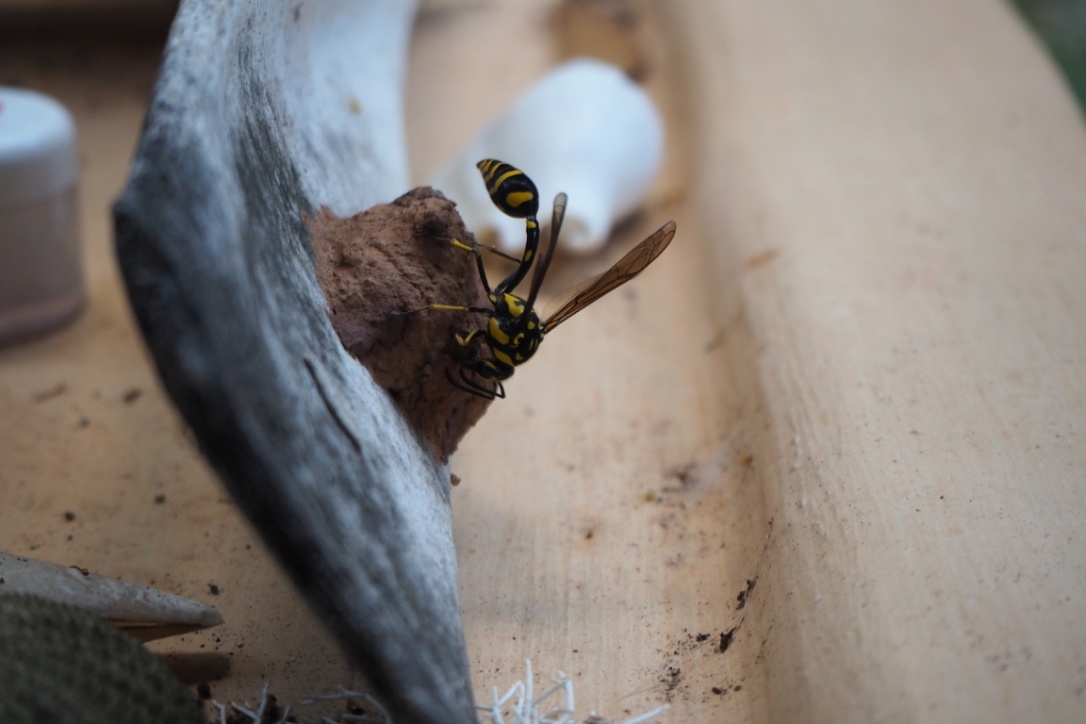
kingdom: Animalia
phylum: Arthropoda
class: Insecta
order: Hymenoptera
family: Eumenidae
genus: Phimenes
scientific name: Phimenes arcuatus
